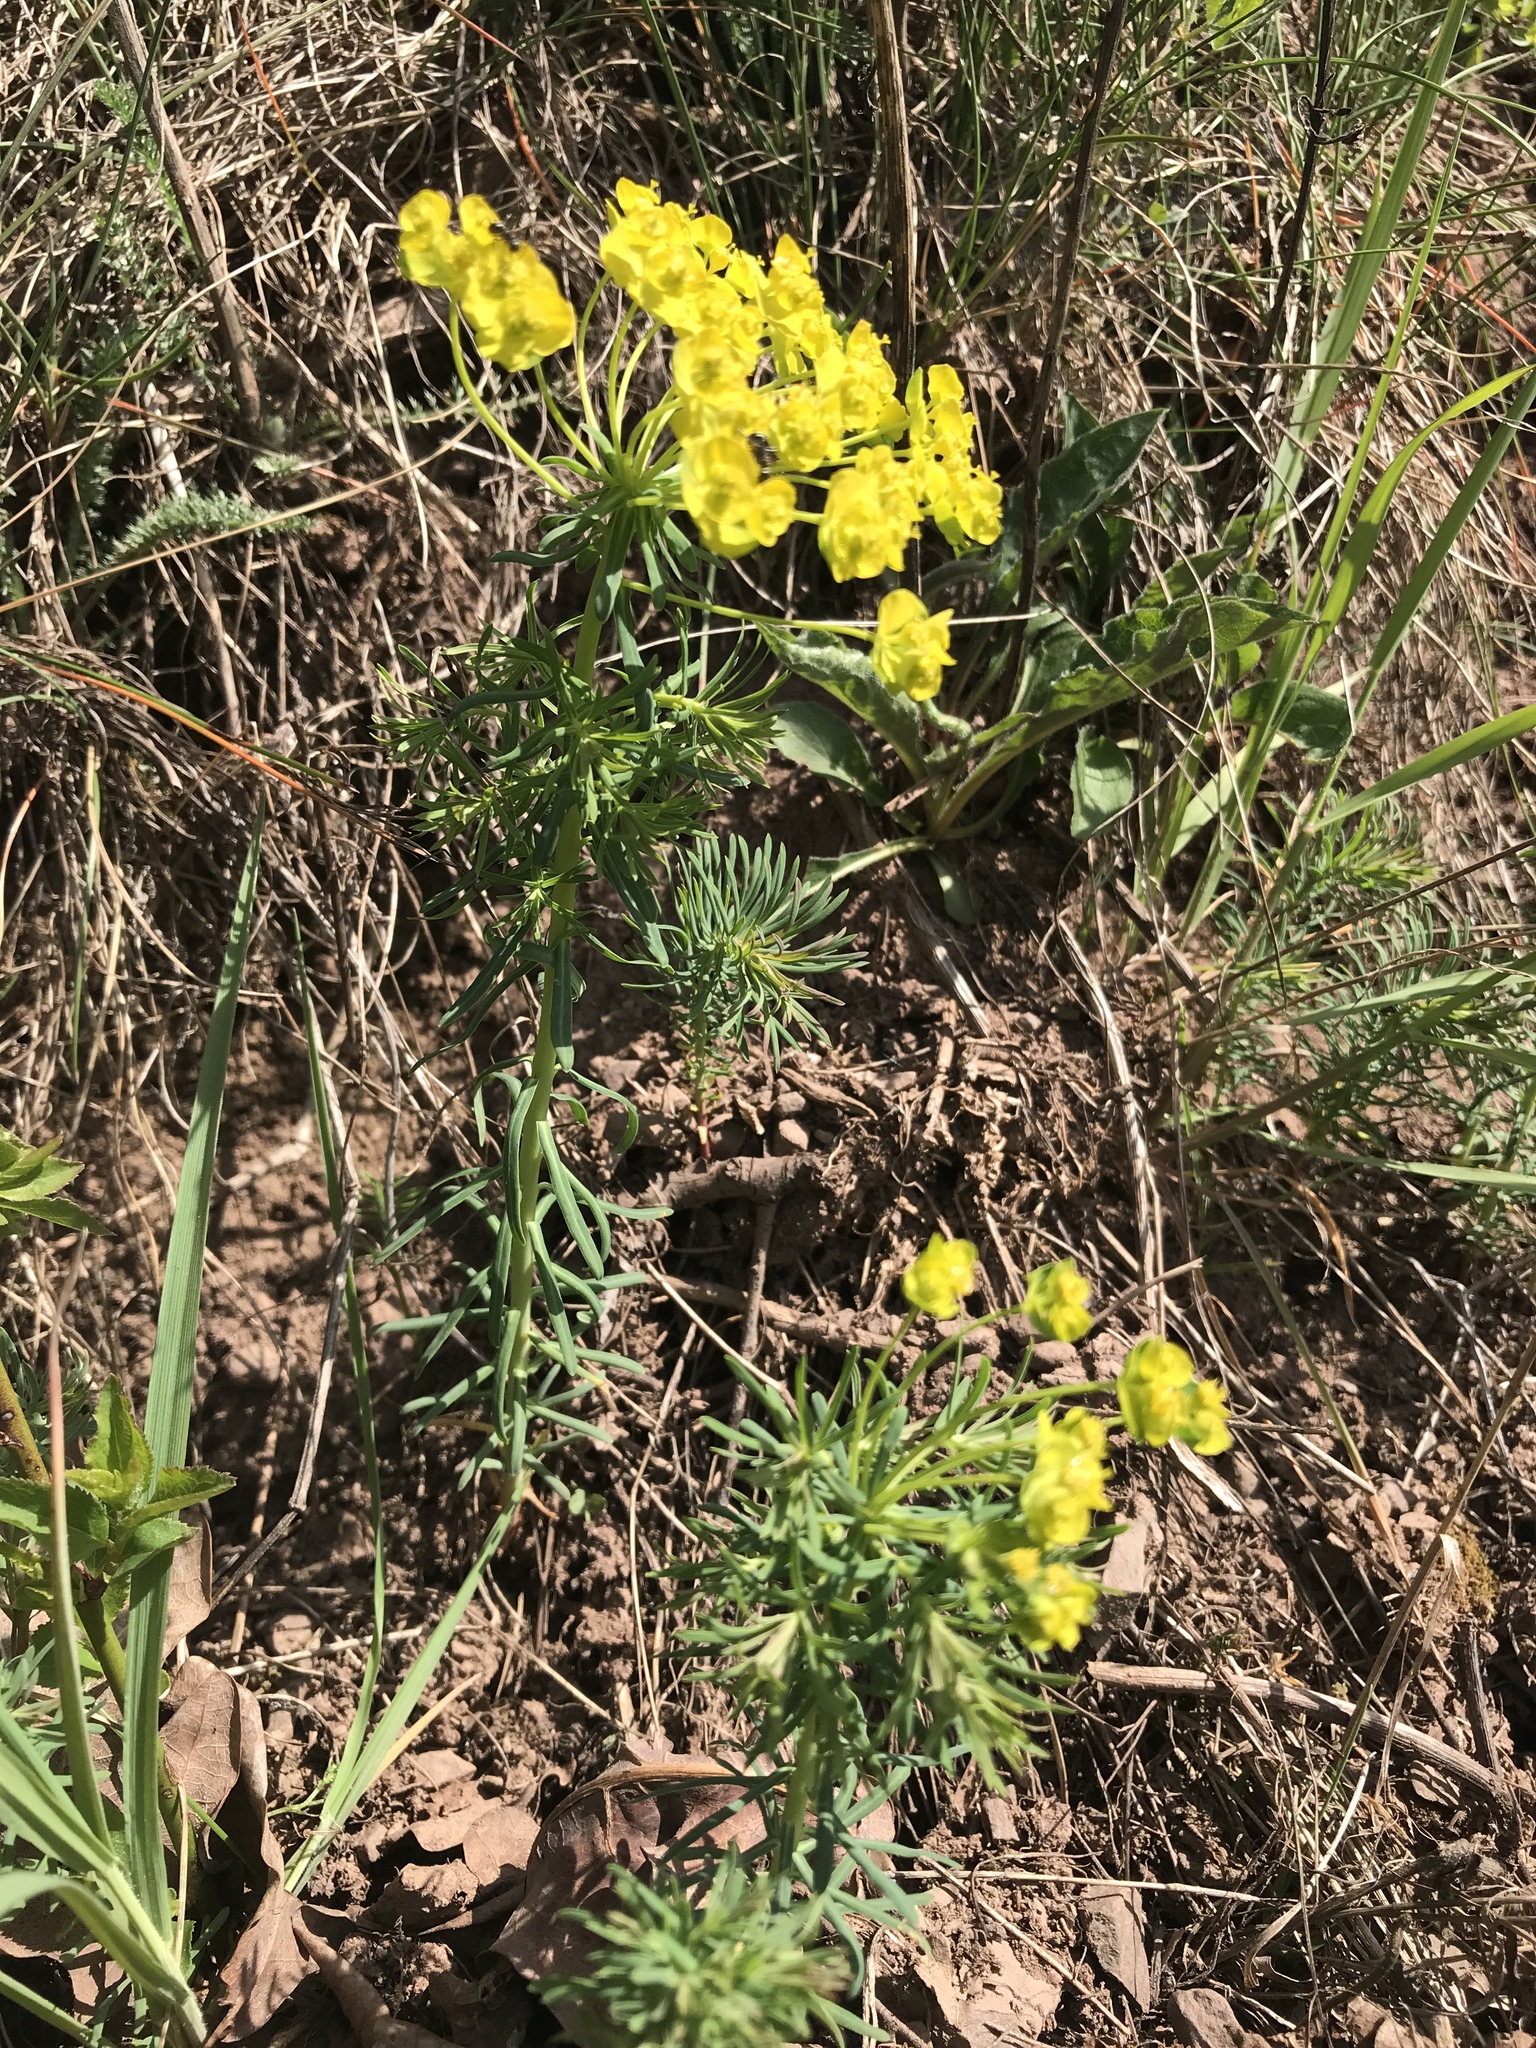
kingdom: Plantae
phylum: Tracheophyta
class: Magnoliopsida
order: Malpighiales
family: Euphorbiaceae
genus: Euphorbia
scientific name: Euphorbia cyparissias
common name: Cypress spurge
